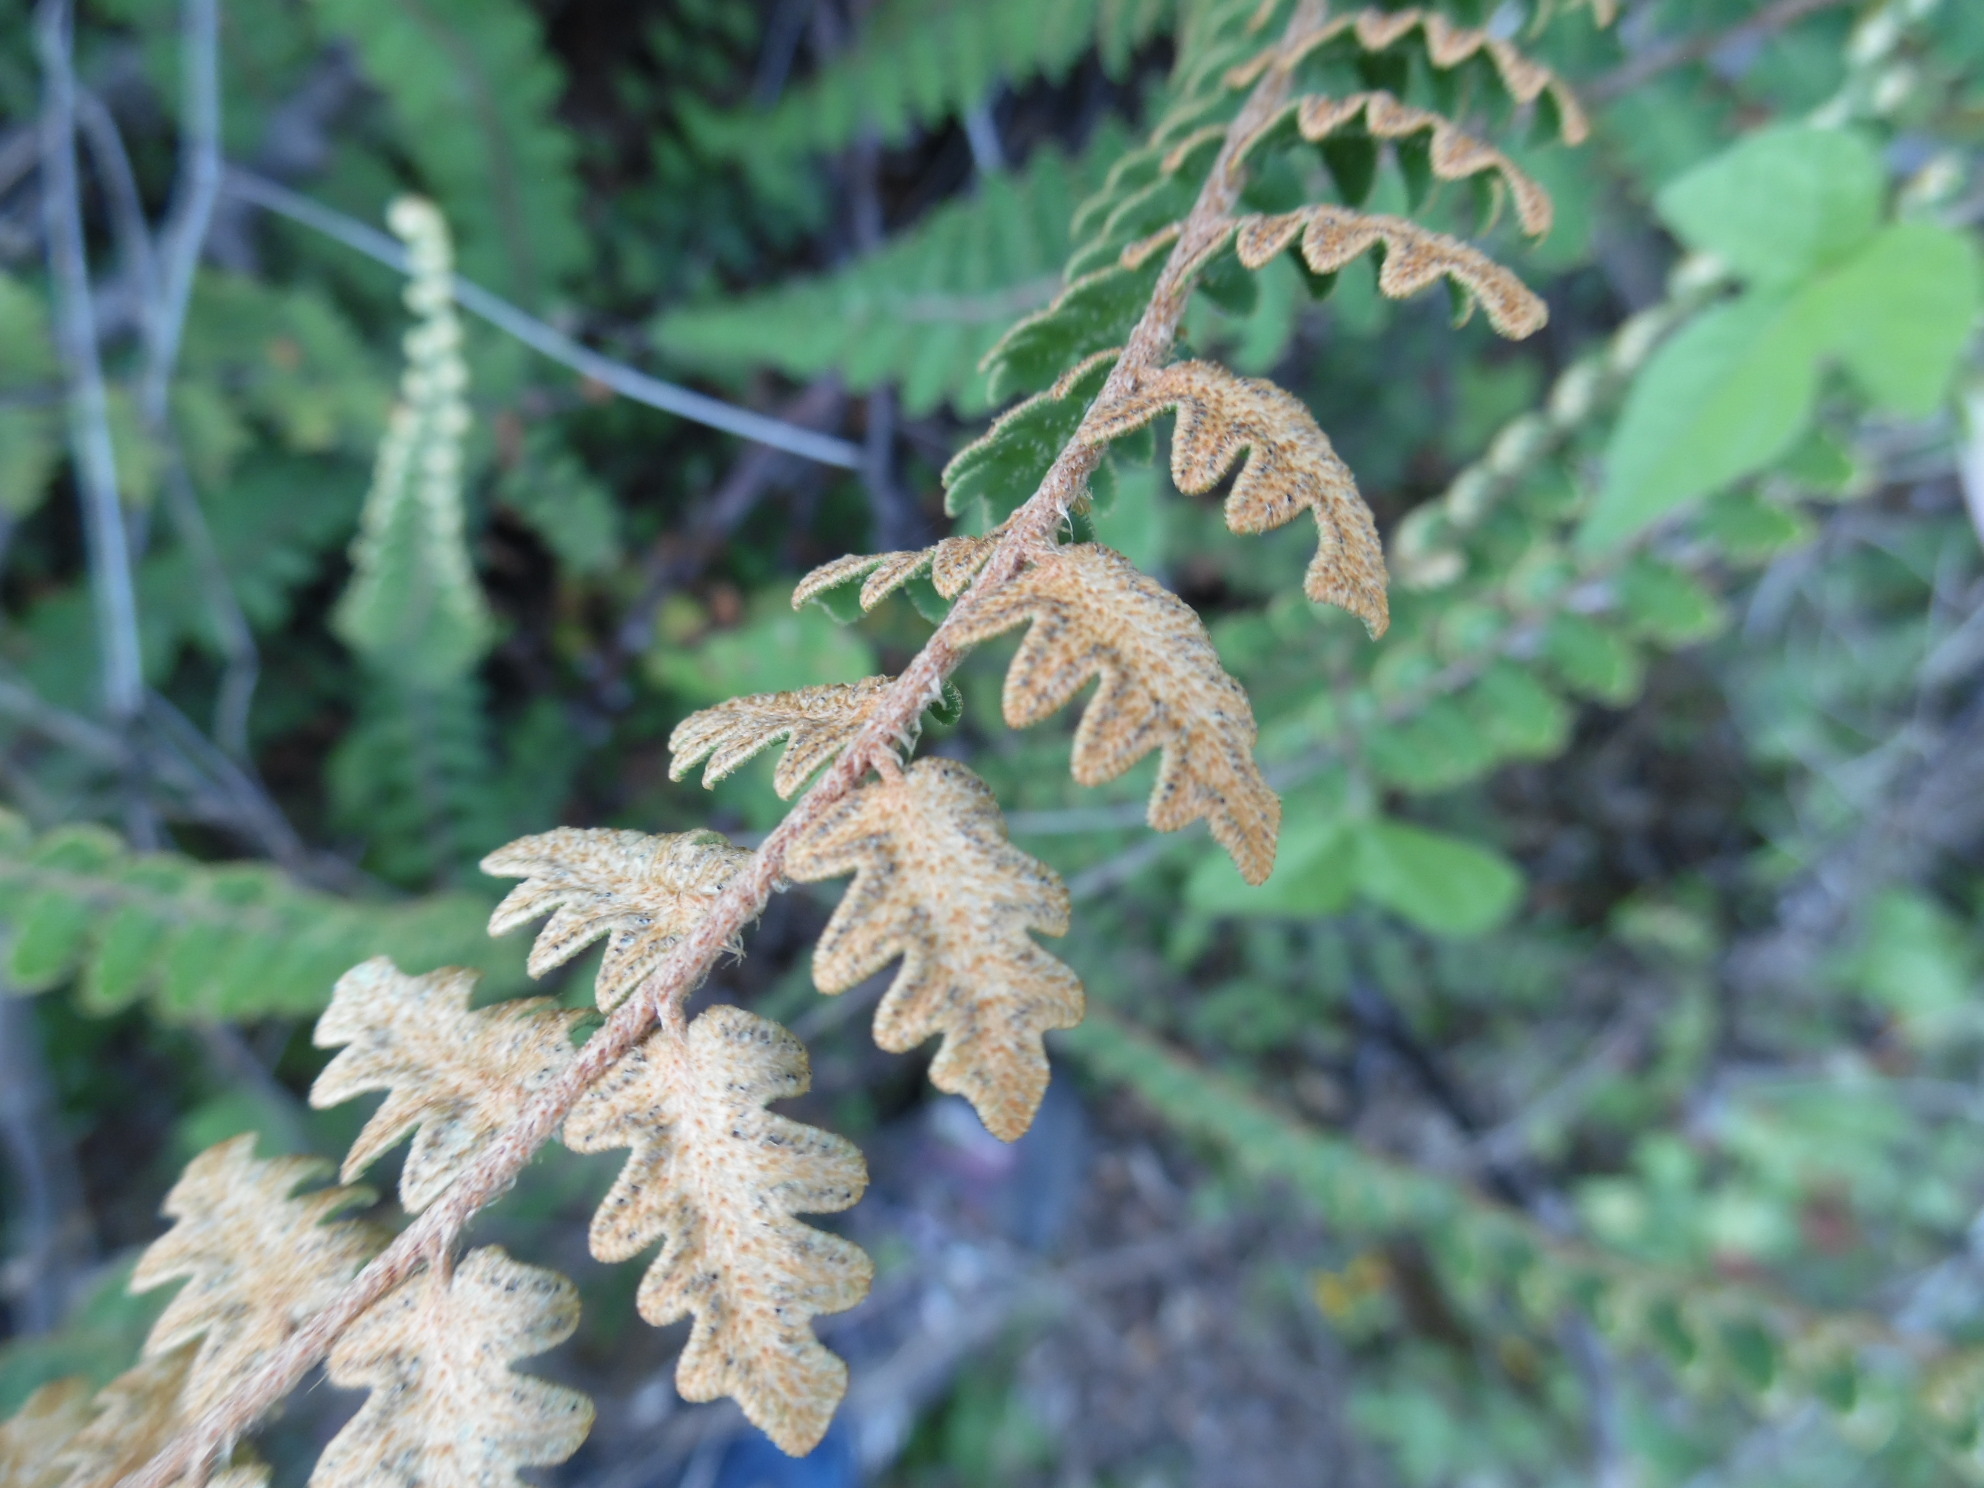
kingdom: Plantae
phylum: Tracheophyta
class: Polypodiopsida
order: Polypodiales
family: Pteridaceae
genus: Astrolepis
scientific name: Astrolepis sinuata
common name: Wavy scaly cloakfern
